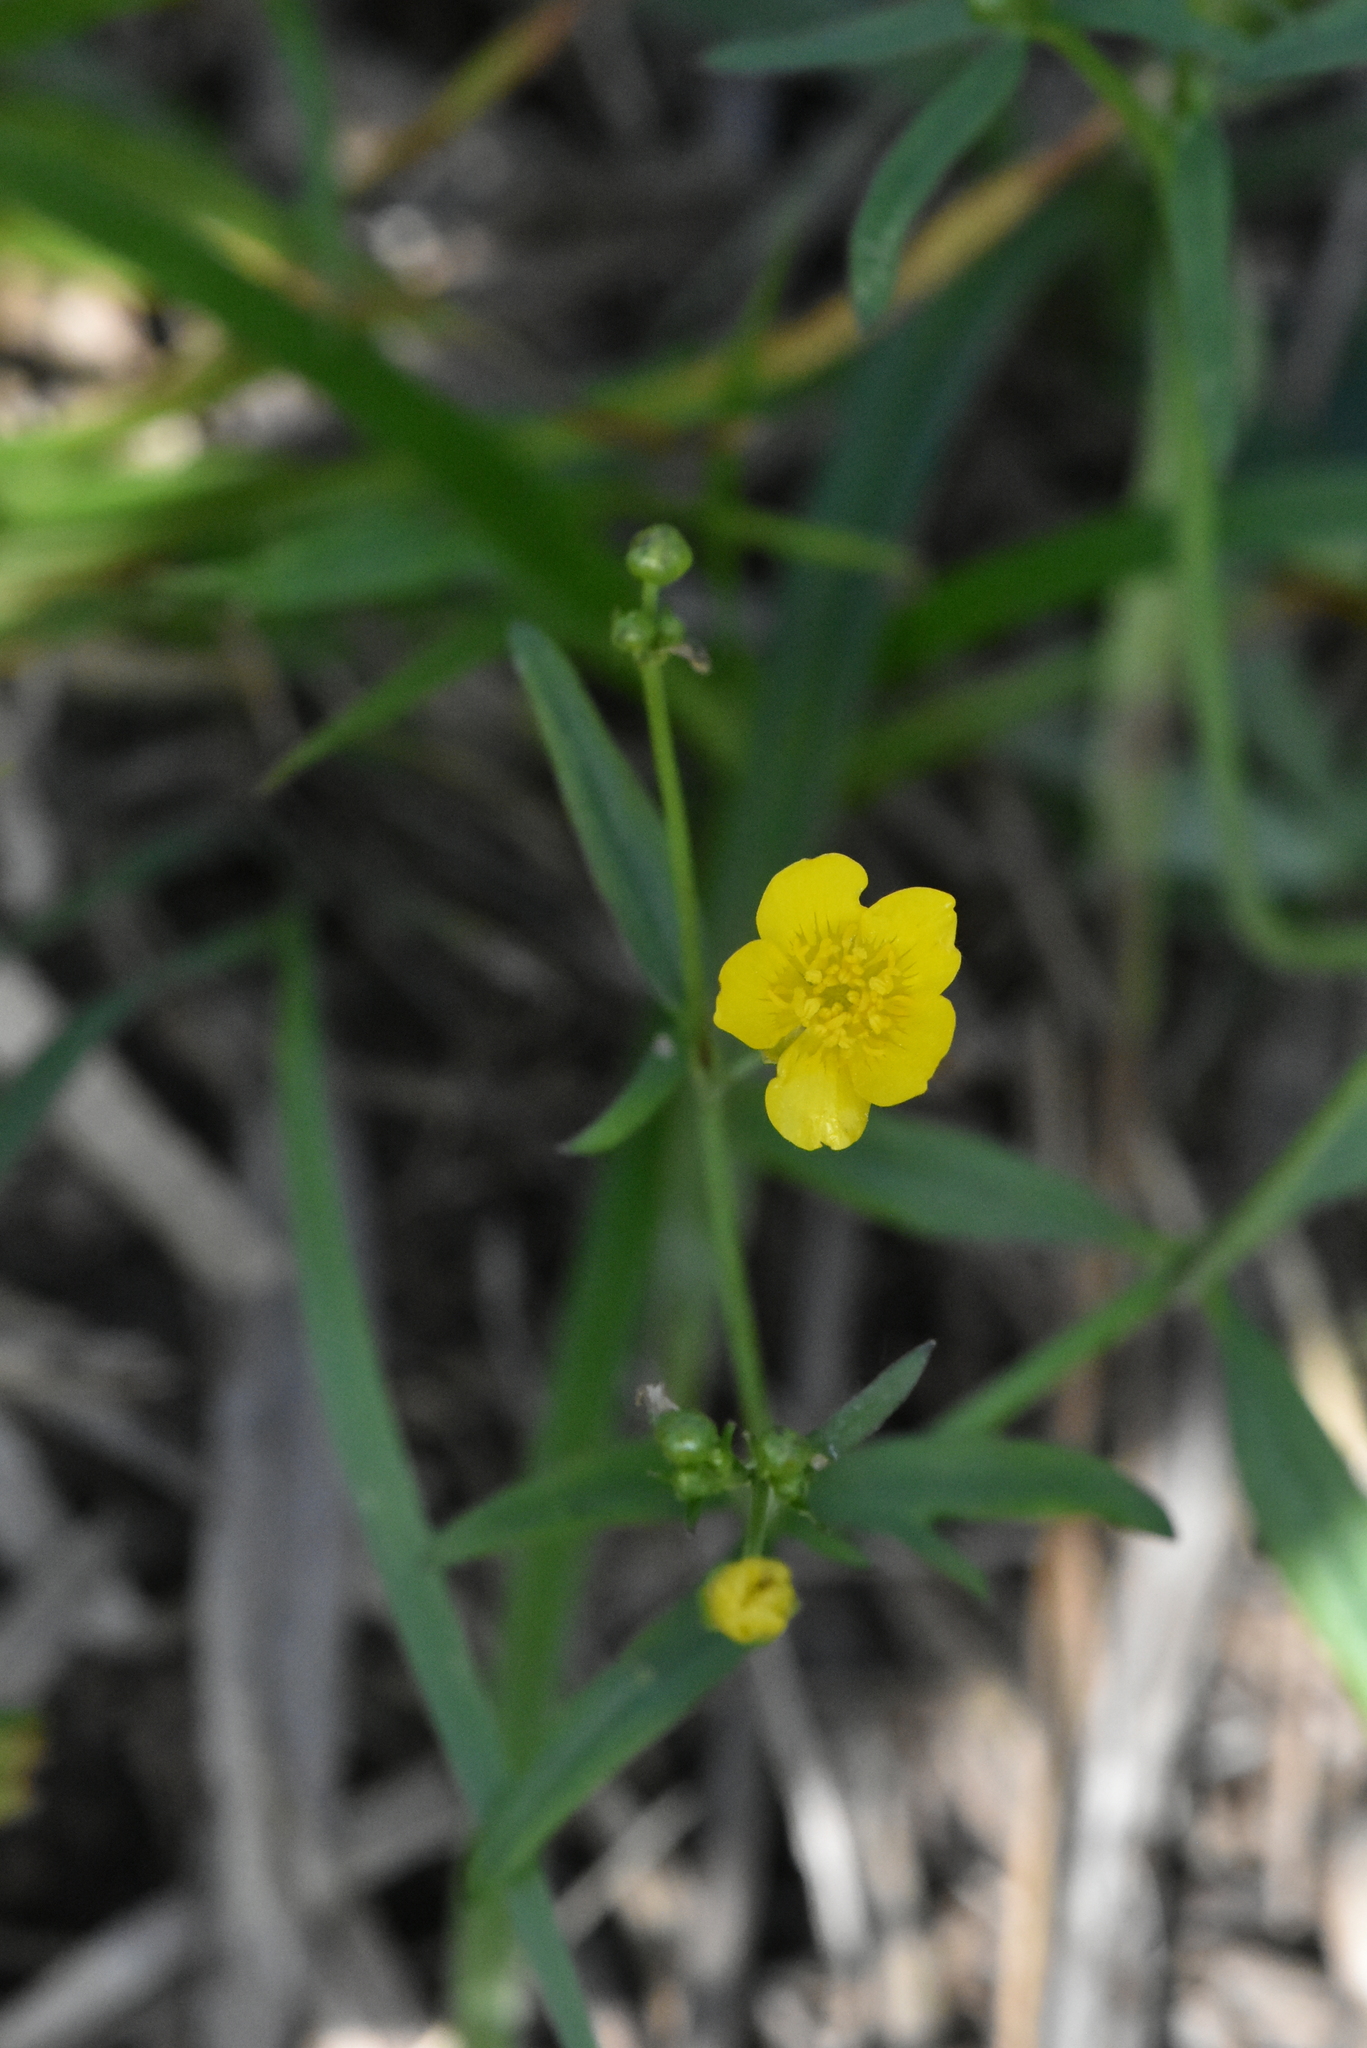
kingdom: Plantae
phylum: Tracheophyta
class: Magnoliopsida
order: Ranunculales
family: Ranunculaceae
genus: Ranunculus
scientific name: Ranunculus repens
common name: Creeping buttercup
